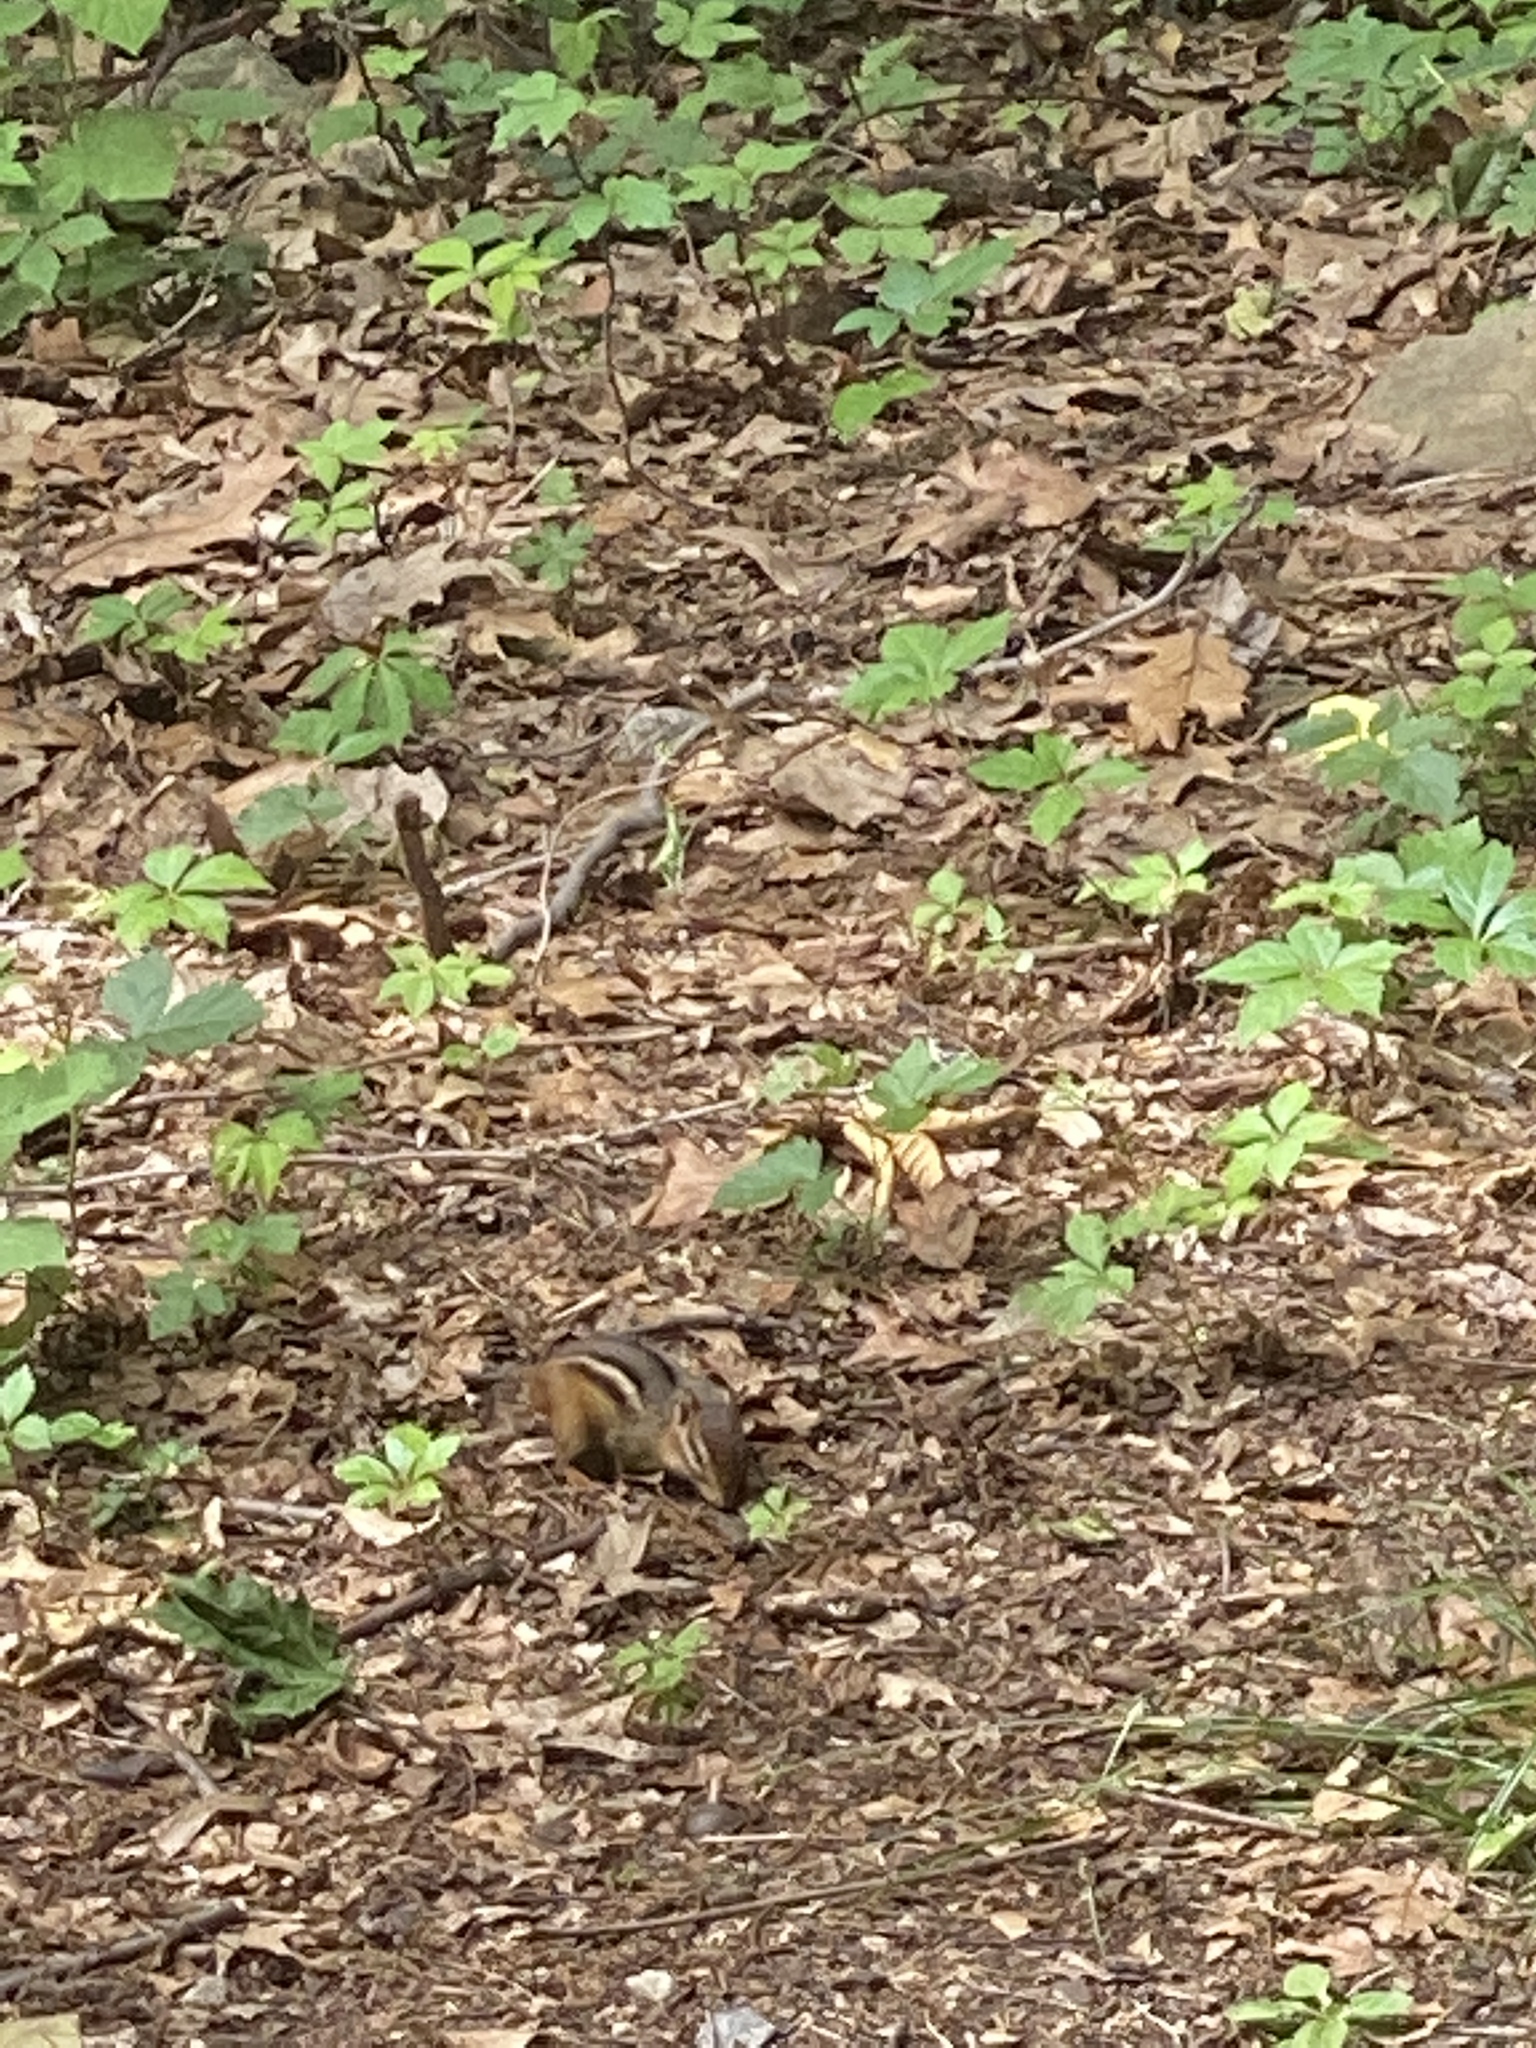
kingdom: Animalia
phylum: Chordata
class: Mammalia
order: Rodentia
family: Sciuridae
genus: Tamias
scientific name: Tamias striatus
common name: Eastern chipmunk
